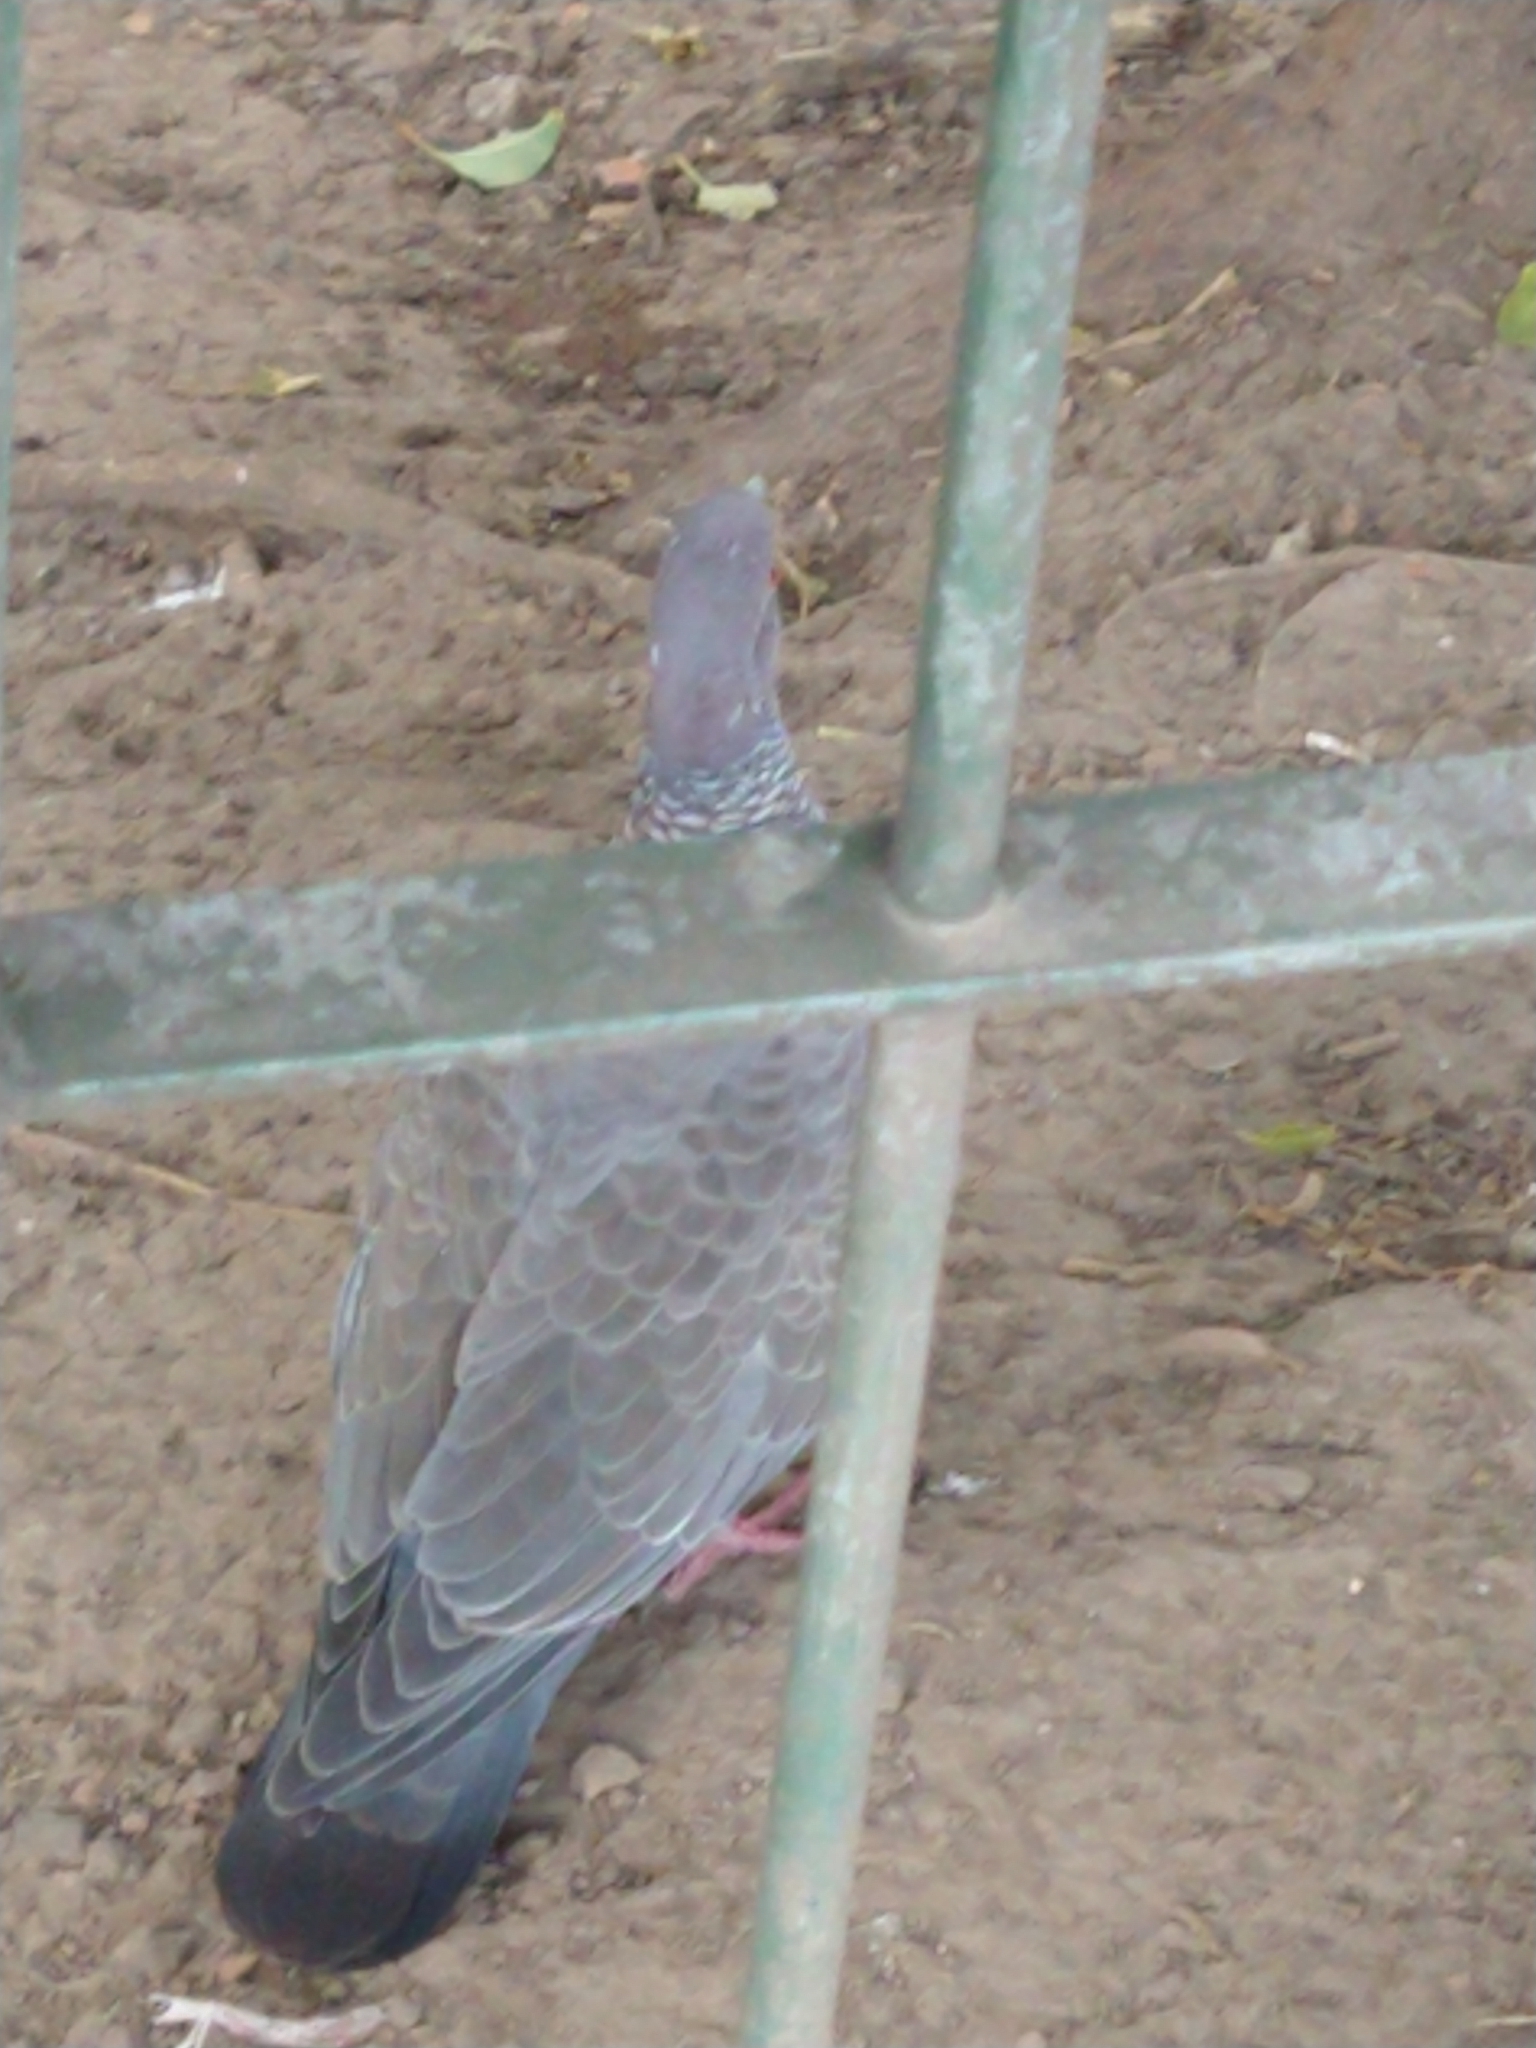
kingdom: Animalia
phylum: Chordata
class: Aves
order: Columbiformes
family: Columbidae
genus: Patagioenas
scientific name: Patagioenas picazuro
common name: Picazuro pigeon
